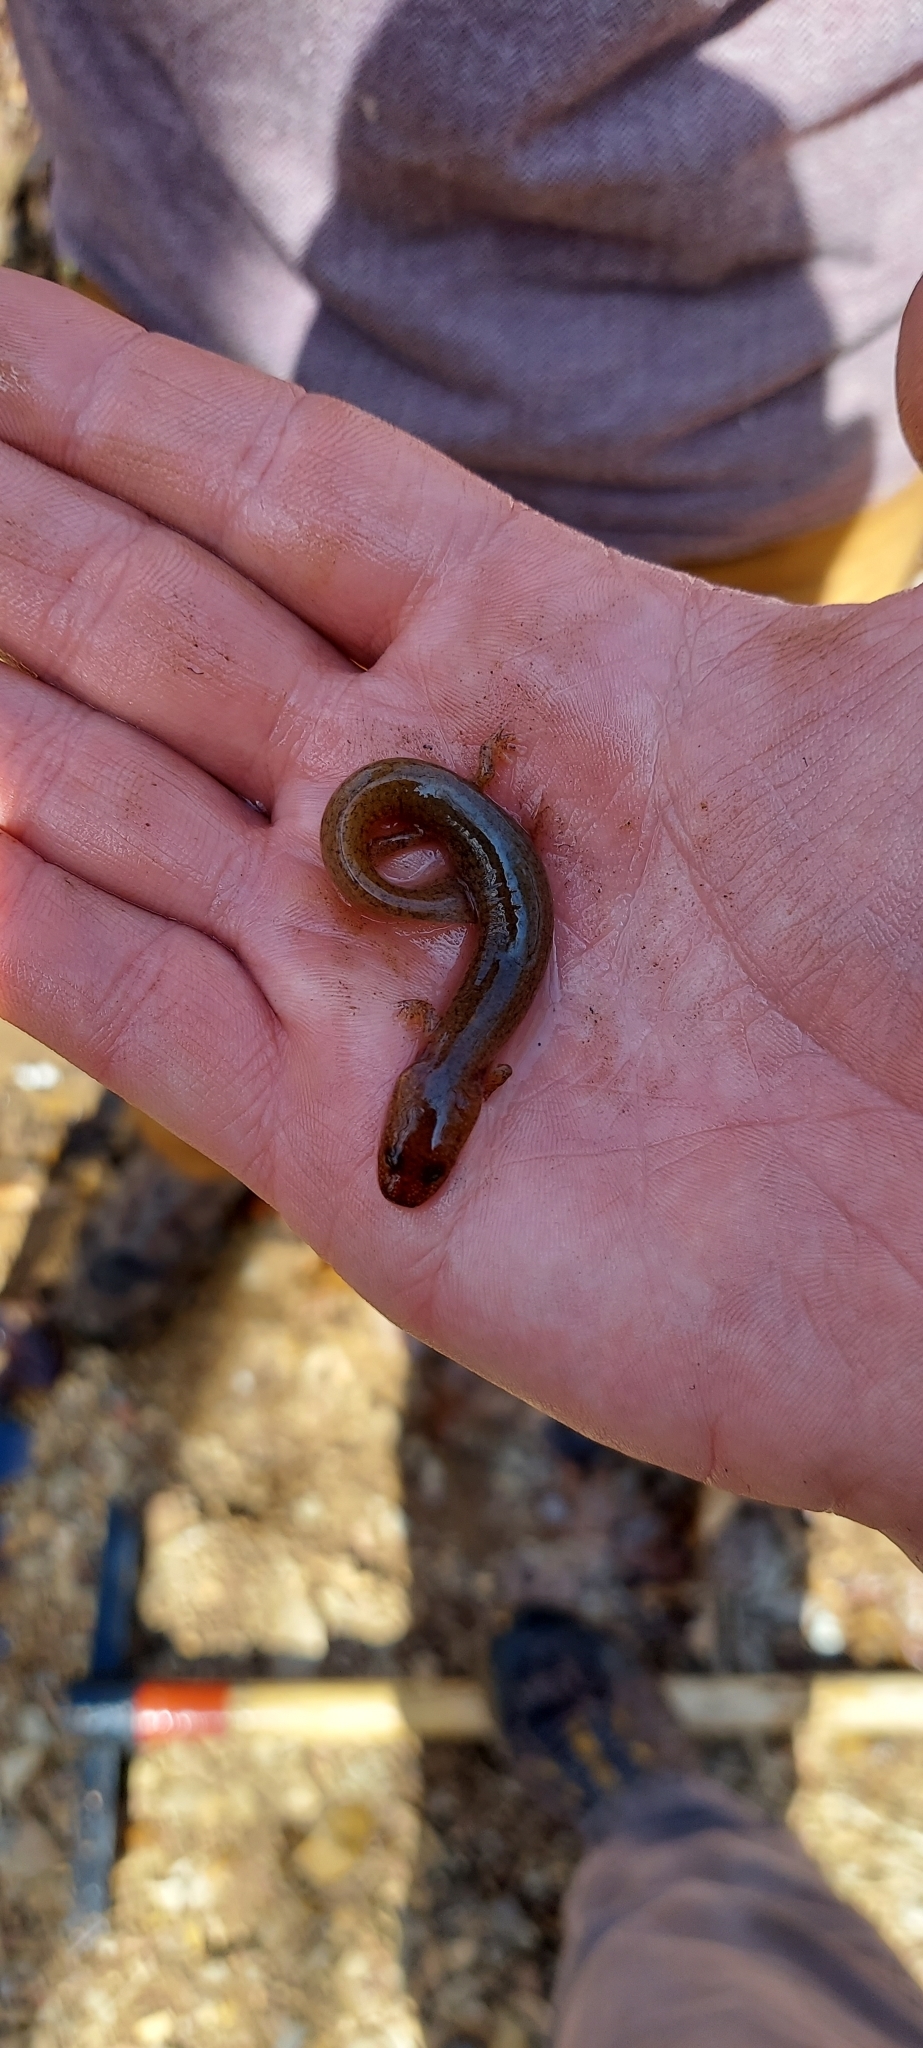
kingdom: Animalia
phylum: Chordata
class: Amphibia
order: Caudata
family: Plethodontidae
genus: Gyrinophilus
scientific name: Gyrinophilus porphyriticus
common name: Spring salamander
